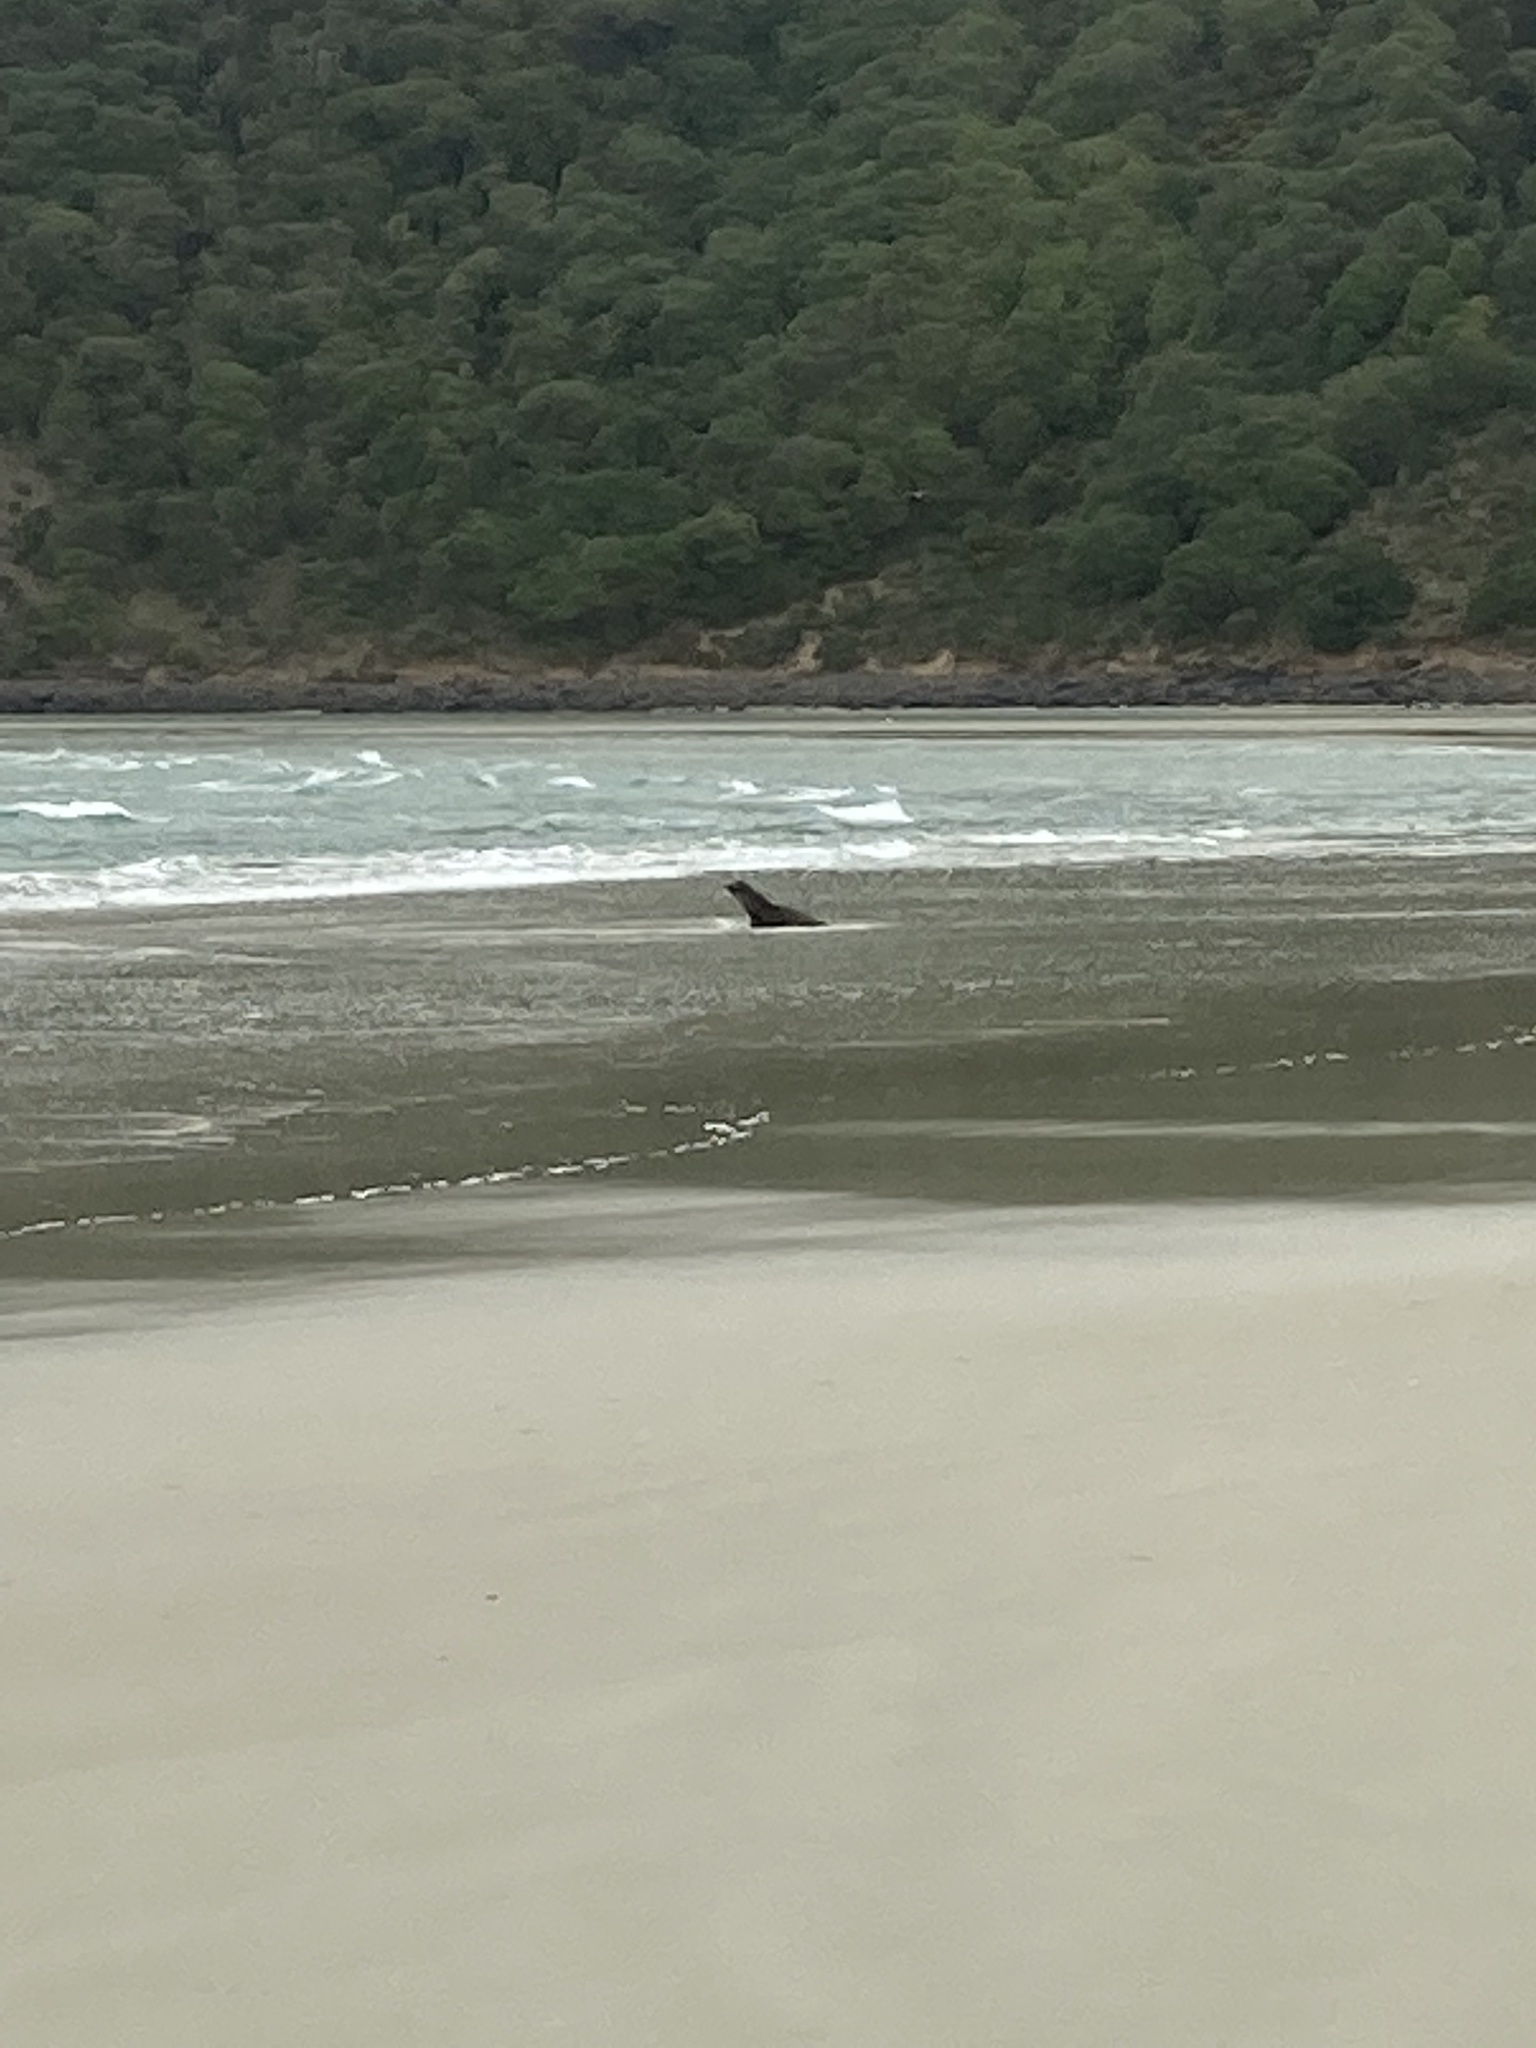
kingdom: Animalia
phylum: Chordata
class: Mammalia
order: Carnivora
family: Otariidae
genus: Phocarctos
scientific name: Phocarctos hookeri
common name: New zealand sea lion
